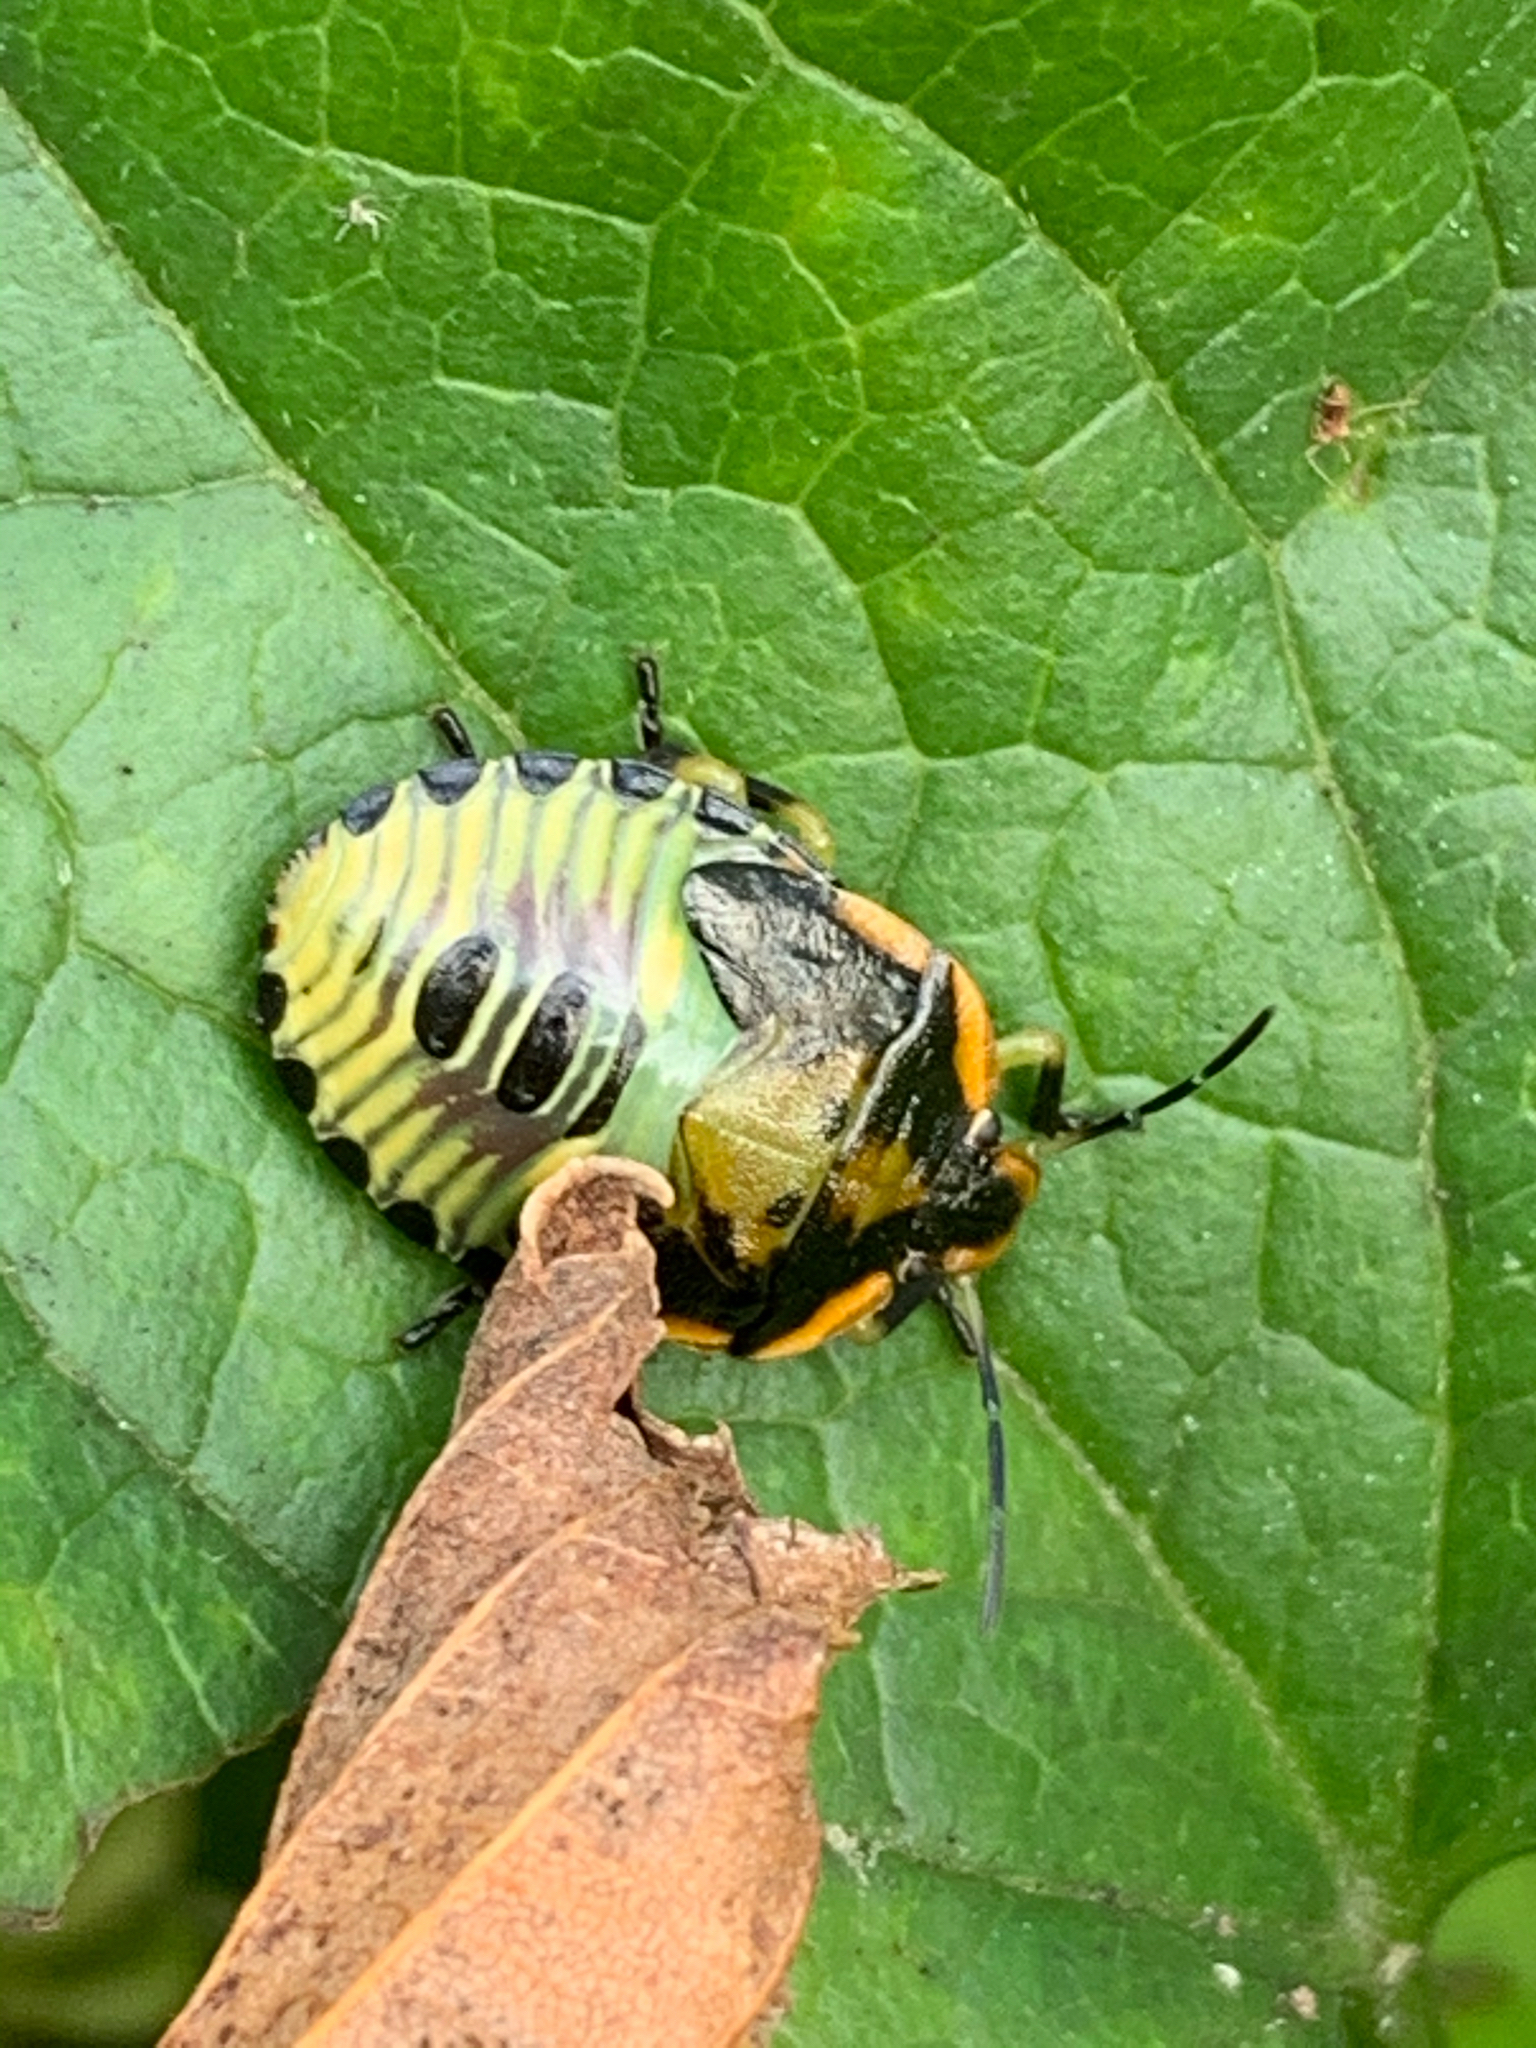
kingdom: Animalia
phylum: Arthropoda
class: Insecta
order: Hemiptera
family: Pentatomidae
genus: Chinavia
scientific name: Chinavia hilaris
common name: Green stink bug
